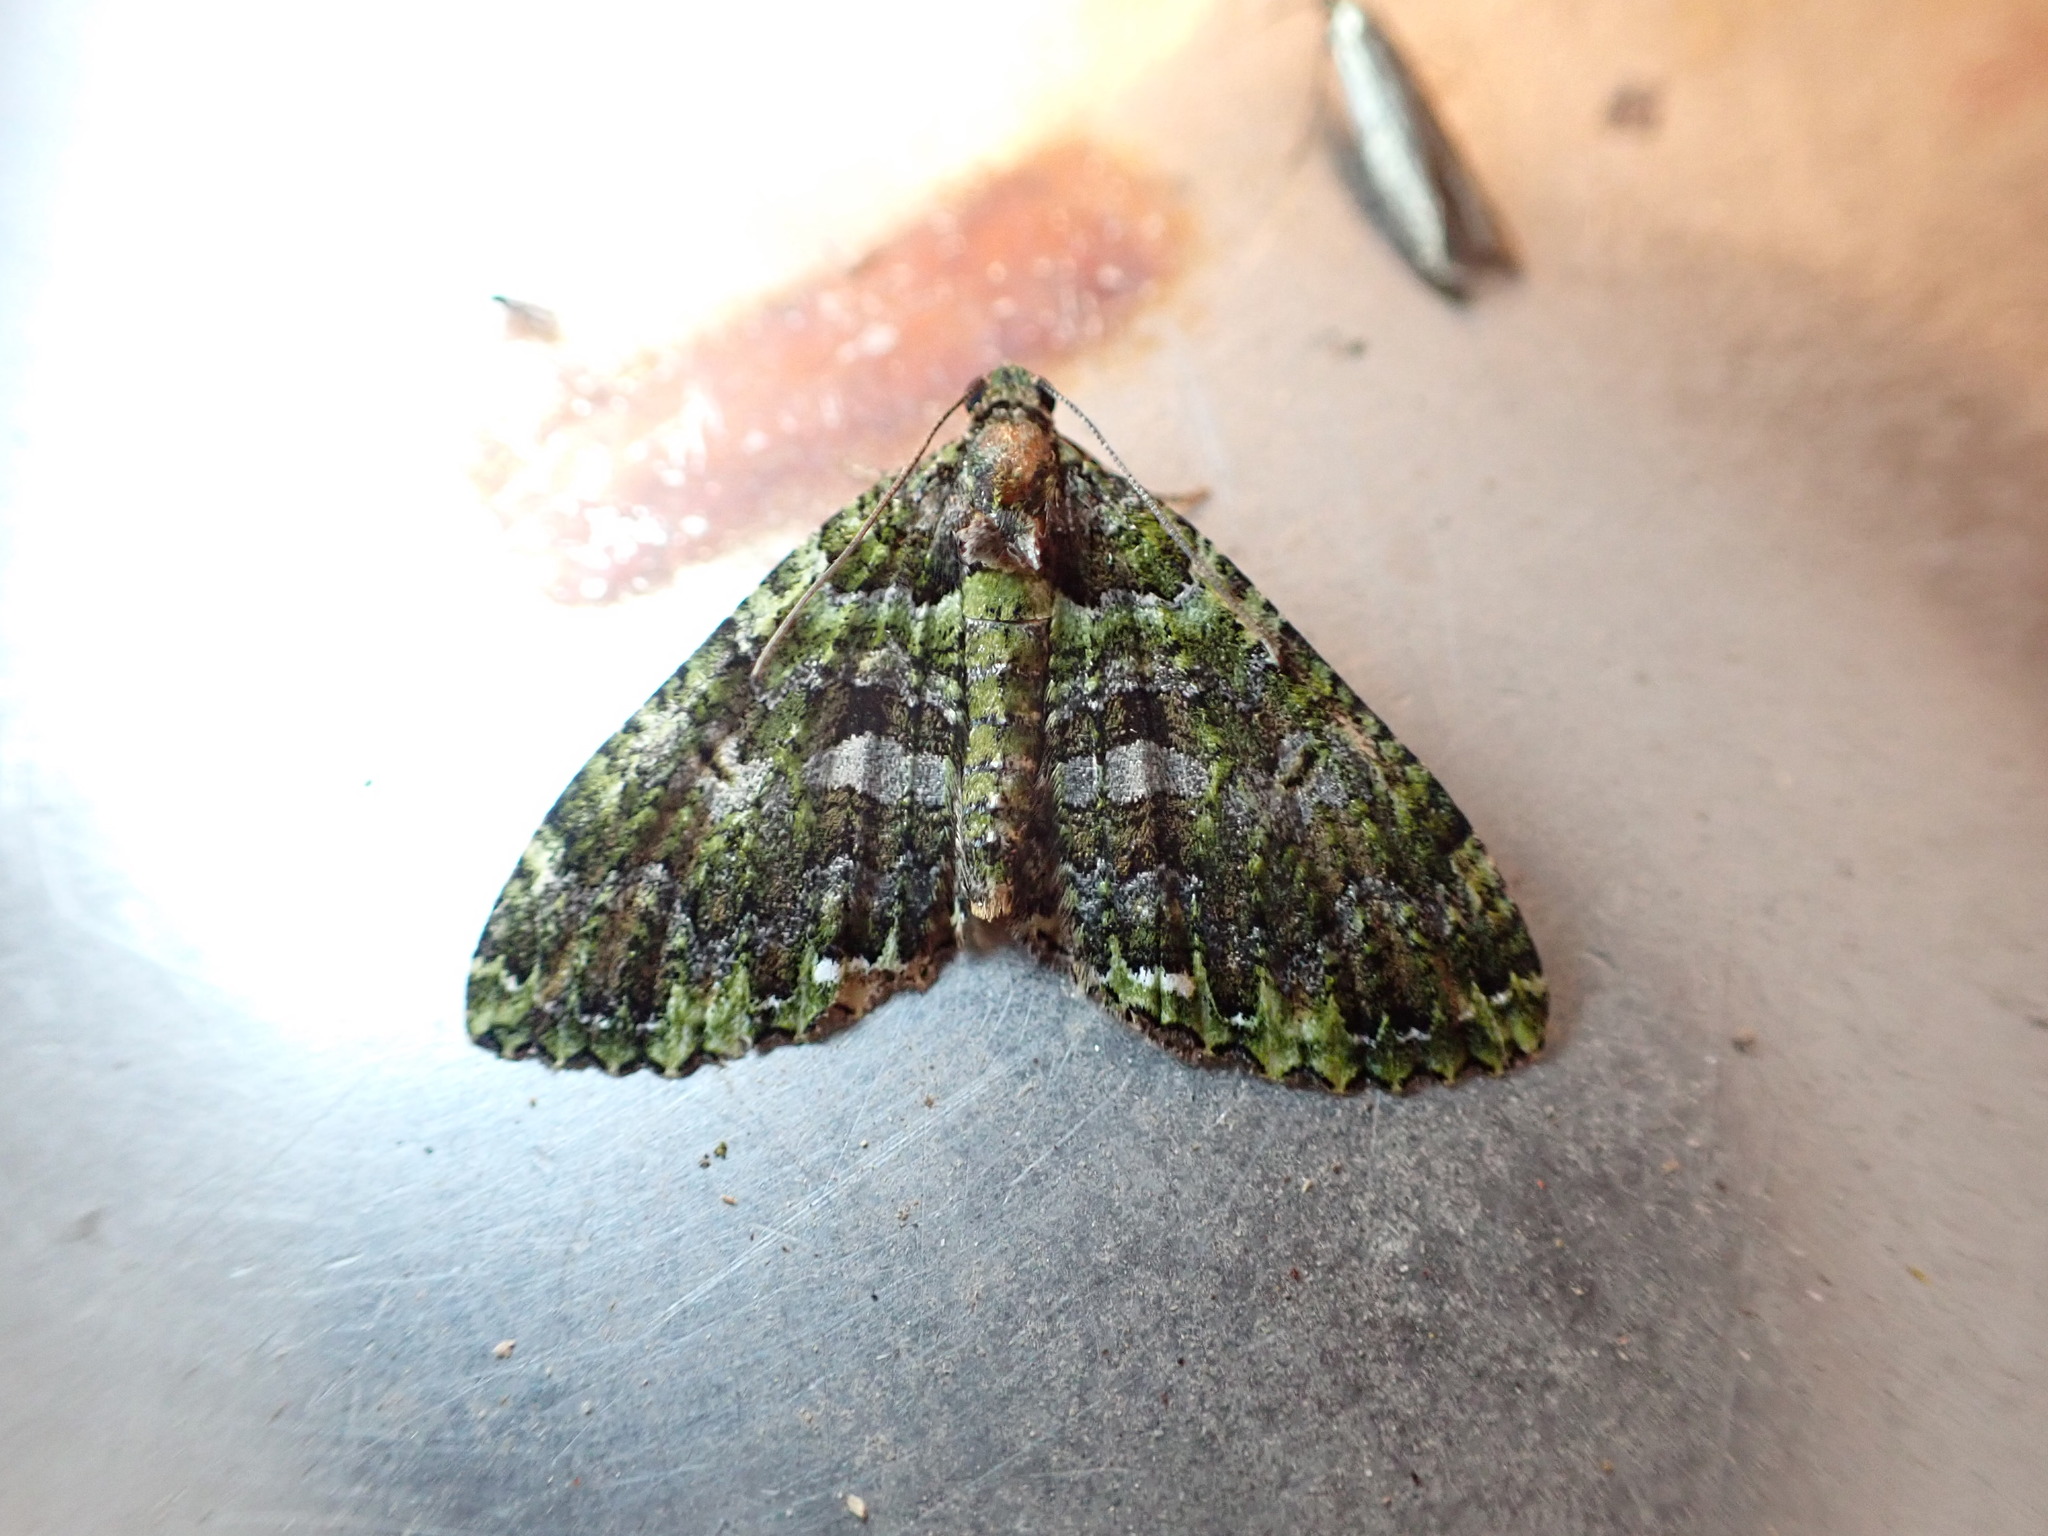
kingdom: Animalia
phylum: Arthropoda
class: Insecta
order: Lepidoptera
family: Geometridae
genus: Austrocidaria
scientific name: Austrocidaria similata
